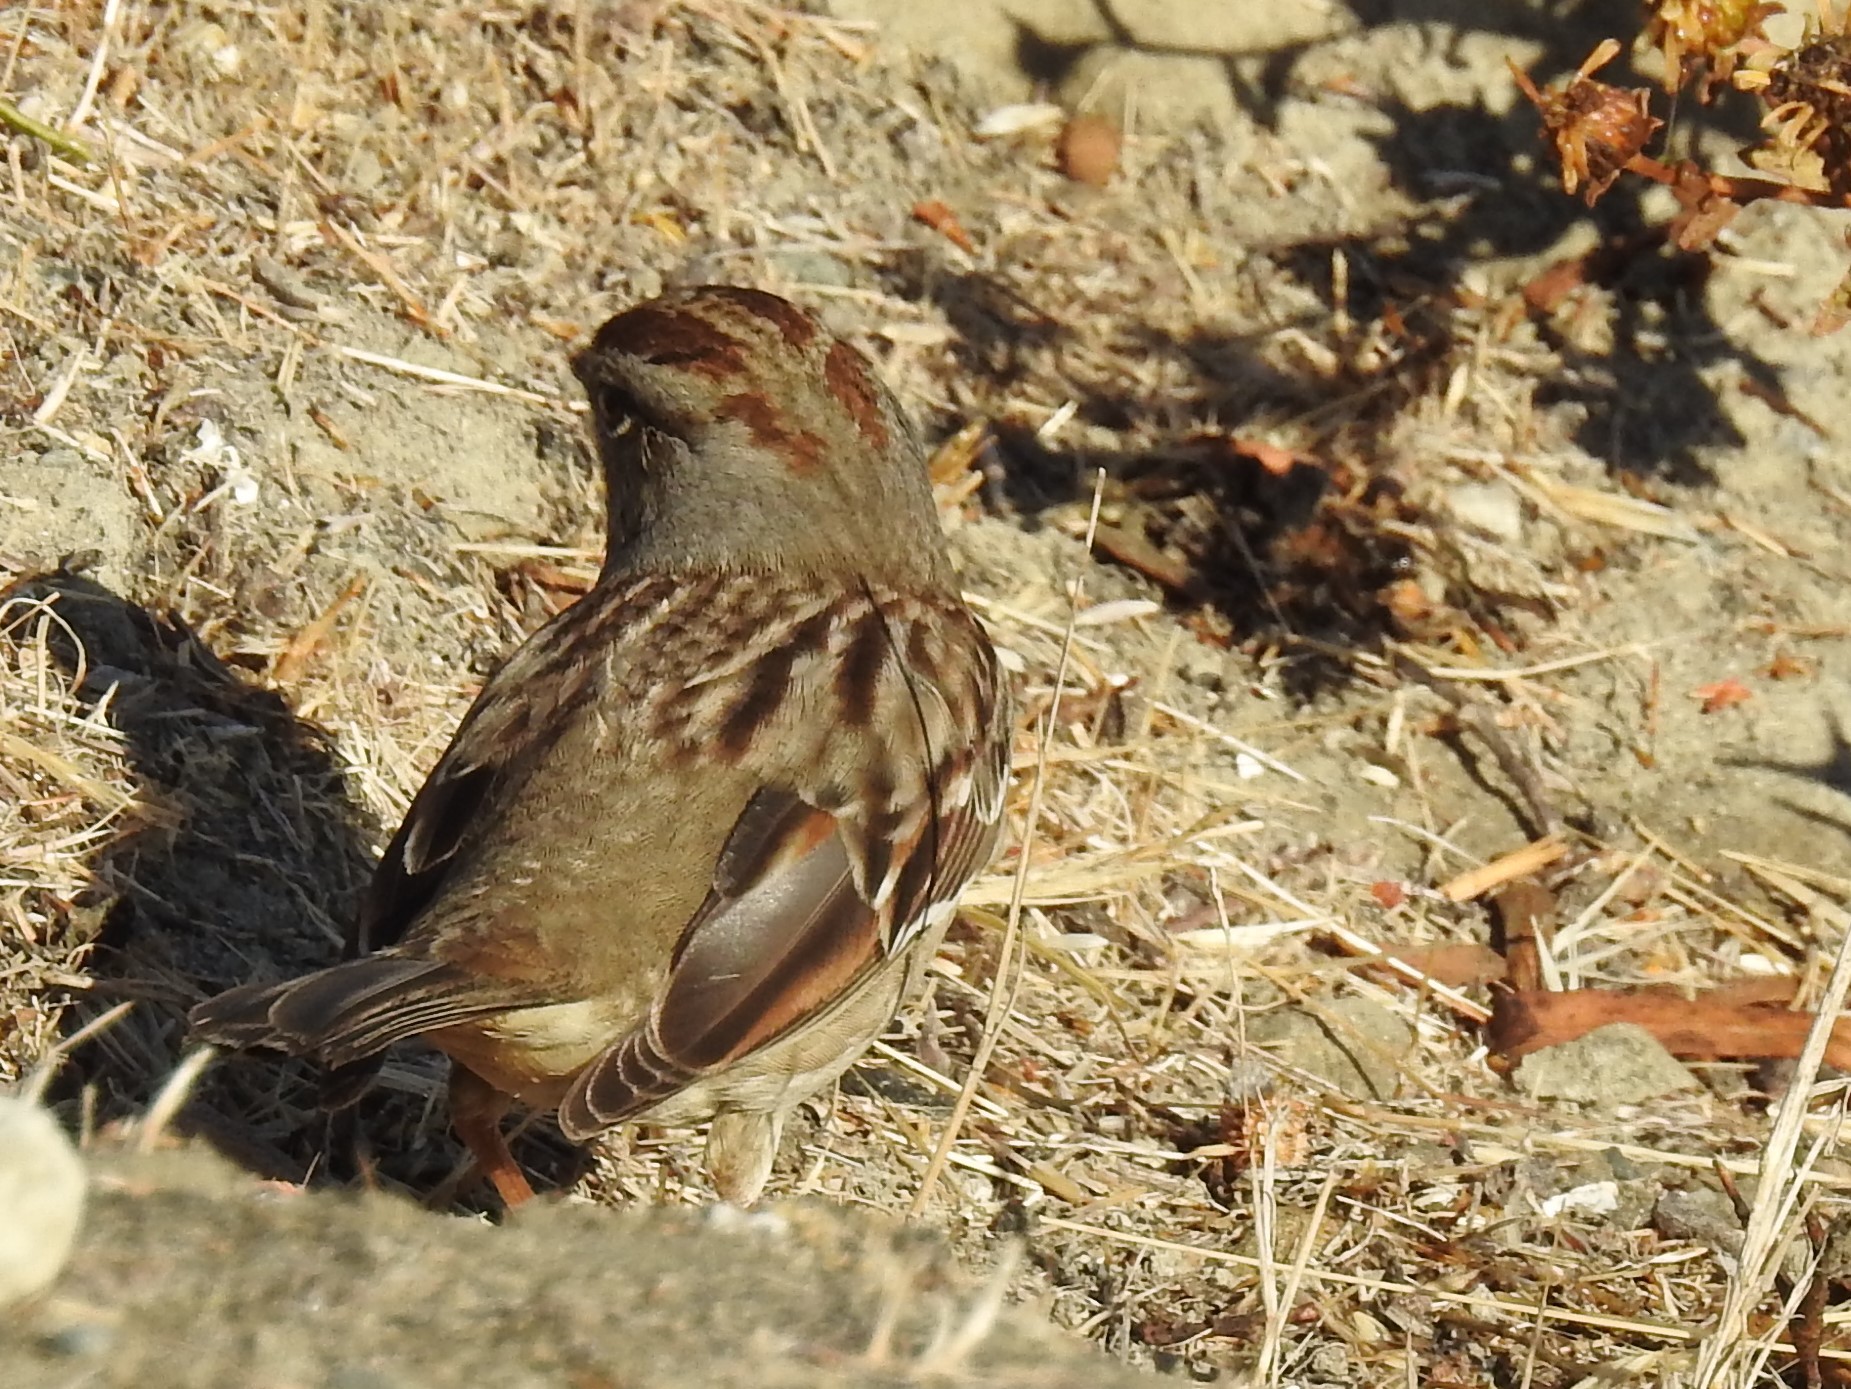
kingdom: Animalia
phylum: Chordata
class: Aves
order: Passeriformes
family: Passerellidae
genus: Zonotrichia
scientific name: Zonotrichia leucophrys
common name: White-crowned sparrow
